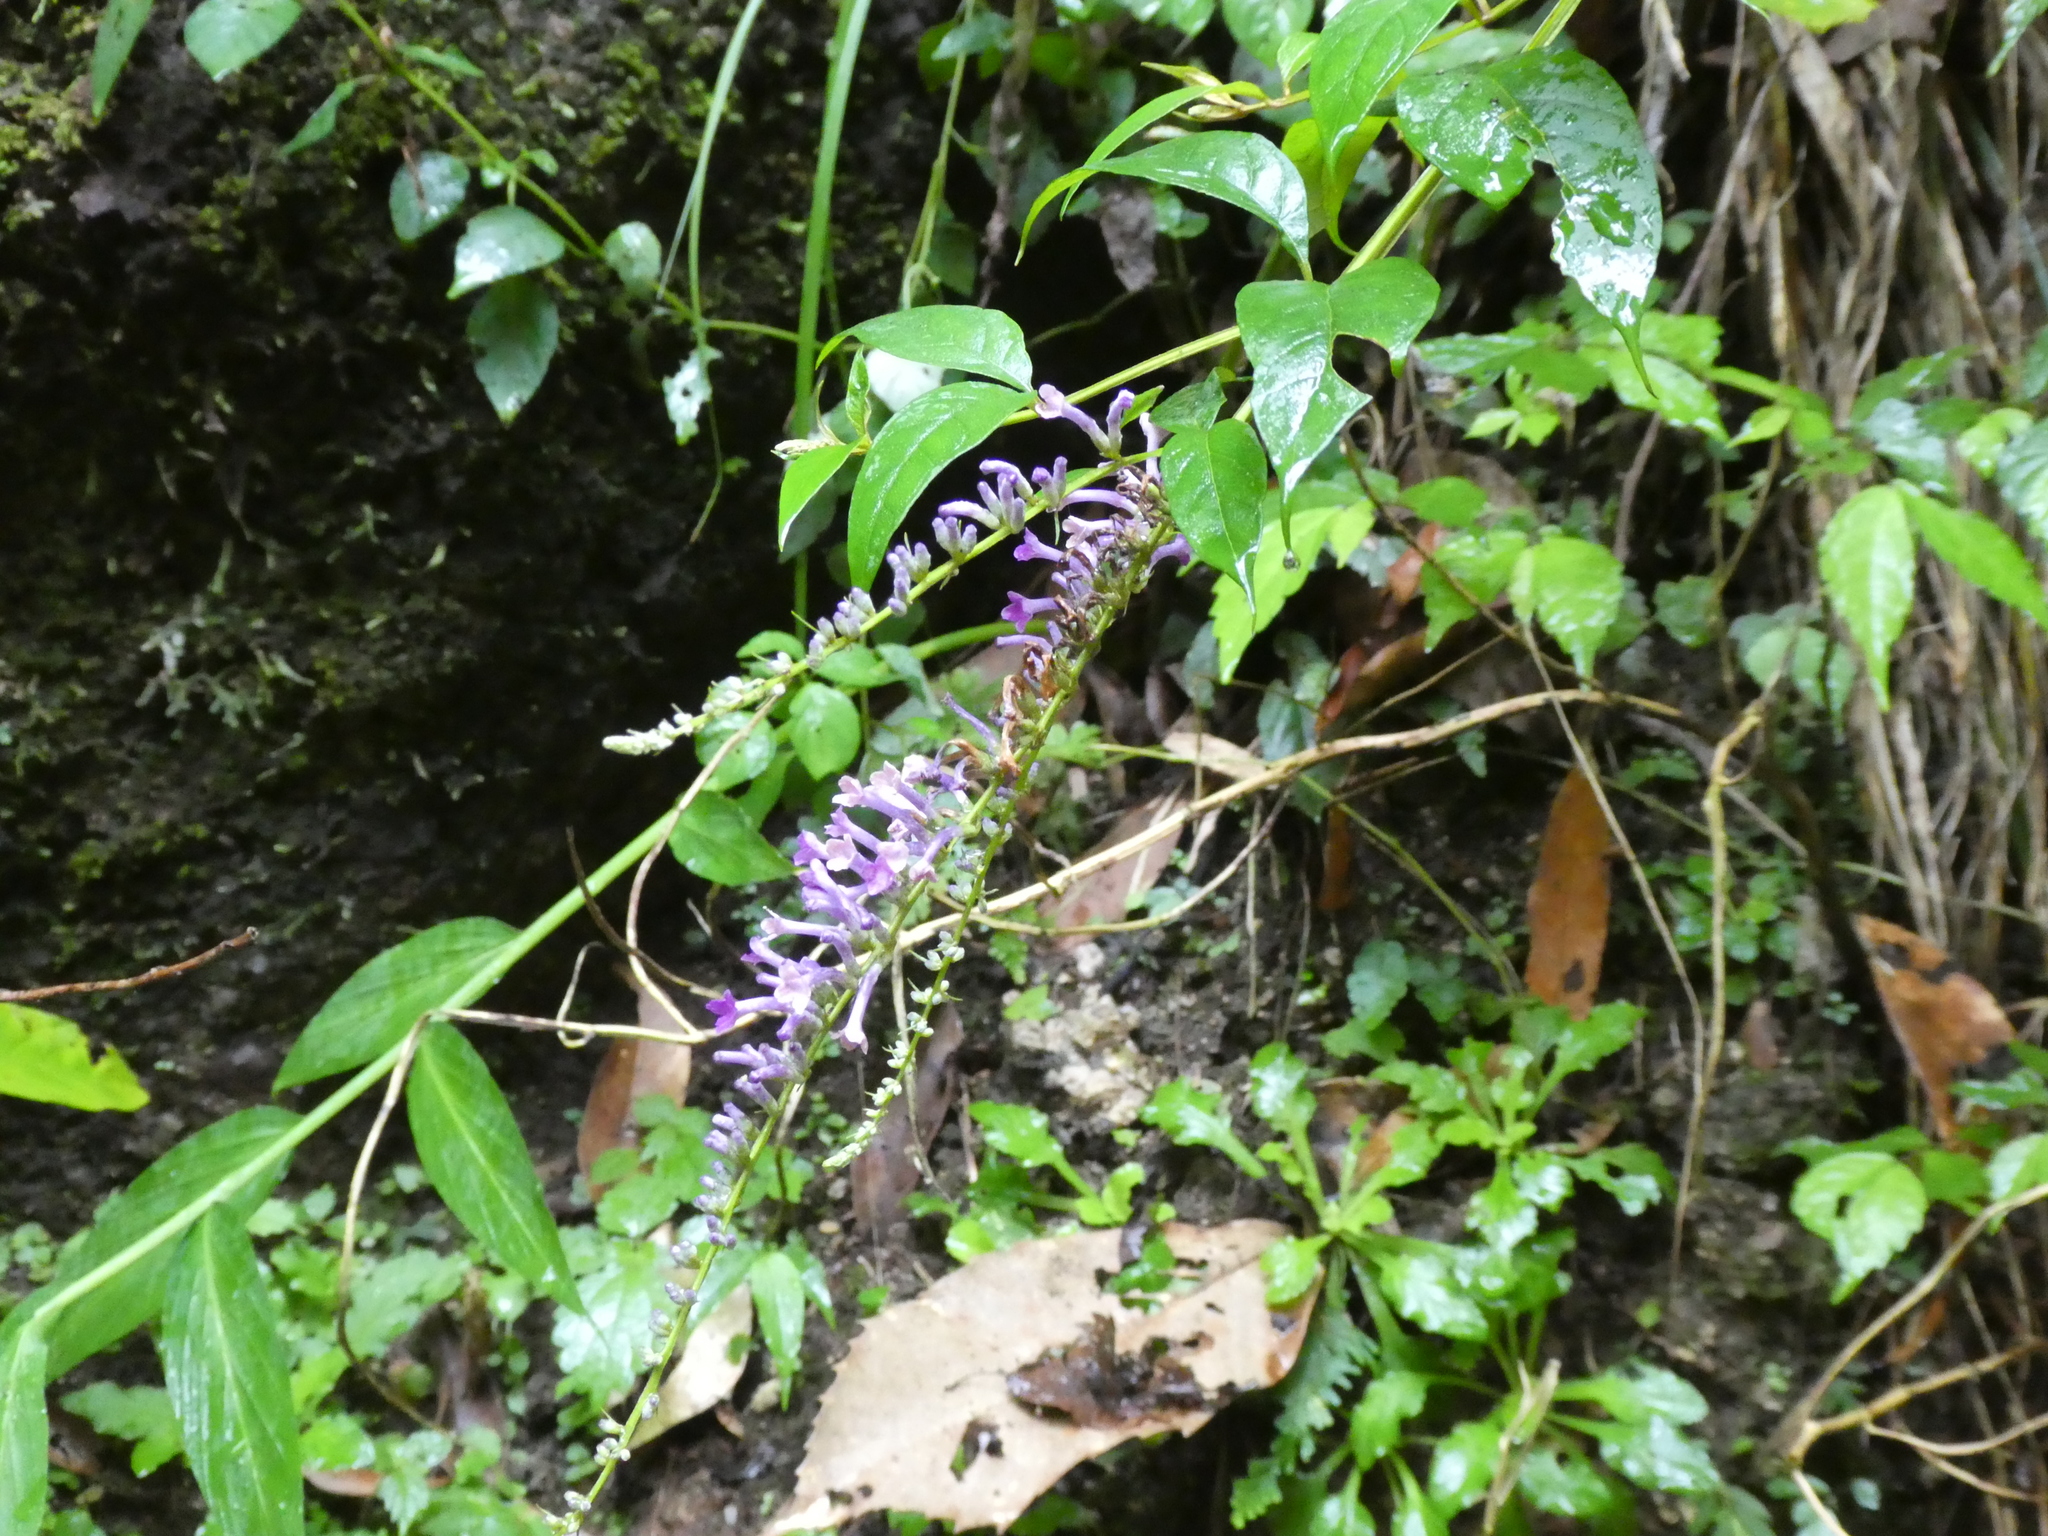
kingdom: Plantae
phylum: Tracheophyta
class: Magnoliopsida
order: Lamiales
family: Scrophulariaceae
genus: Buddleja
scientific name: Buddleja lindleyana
